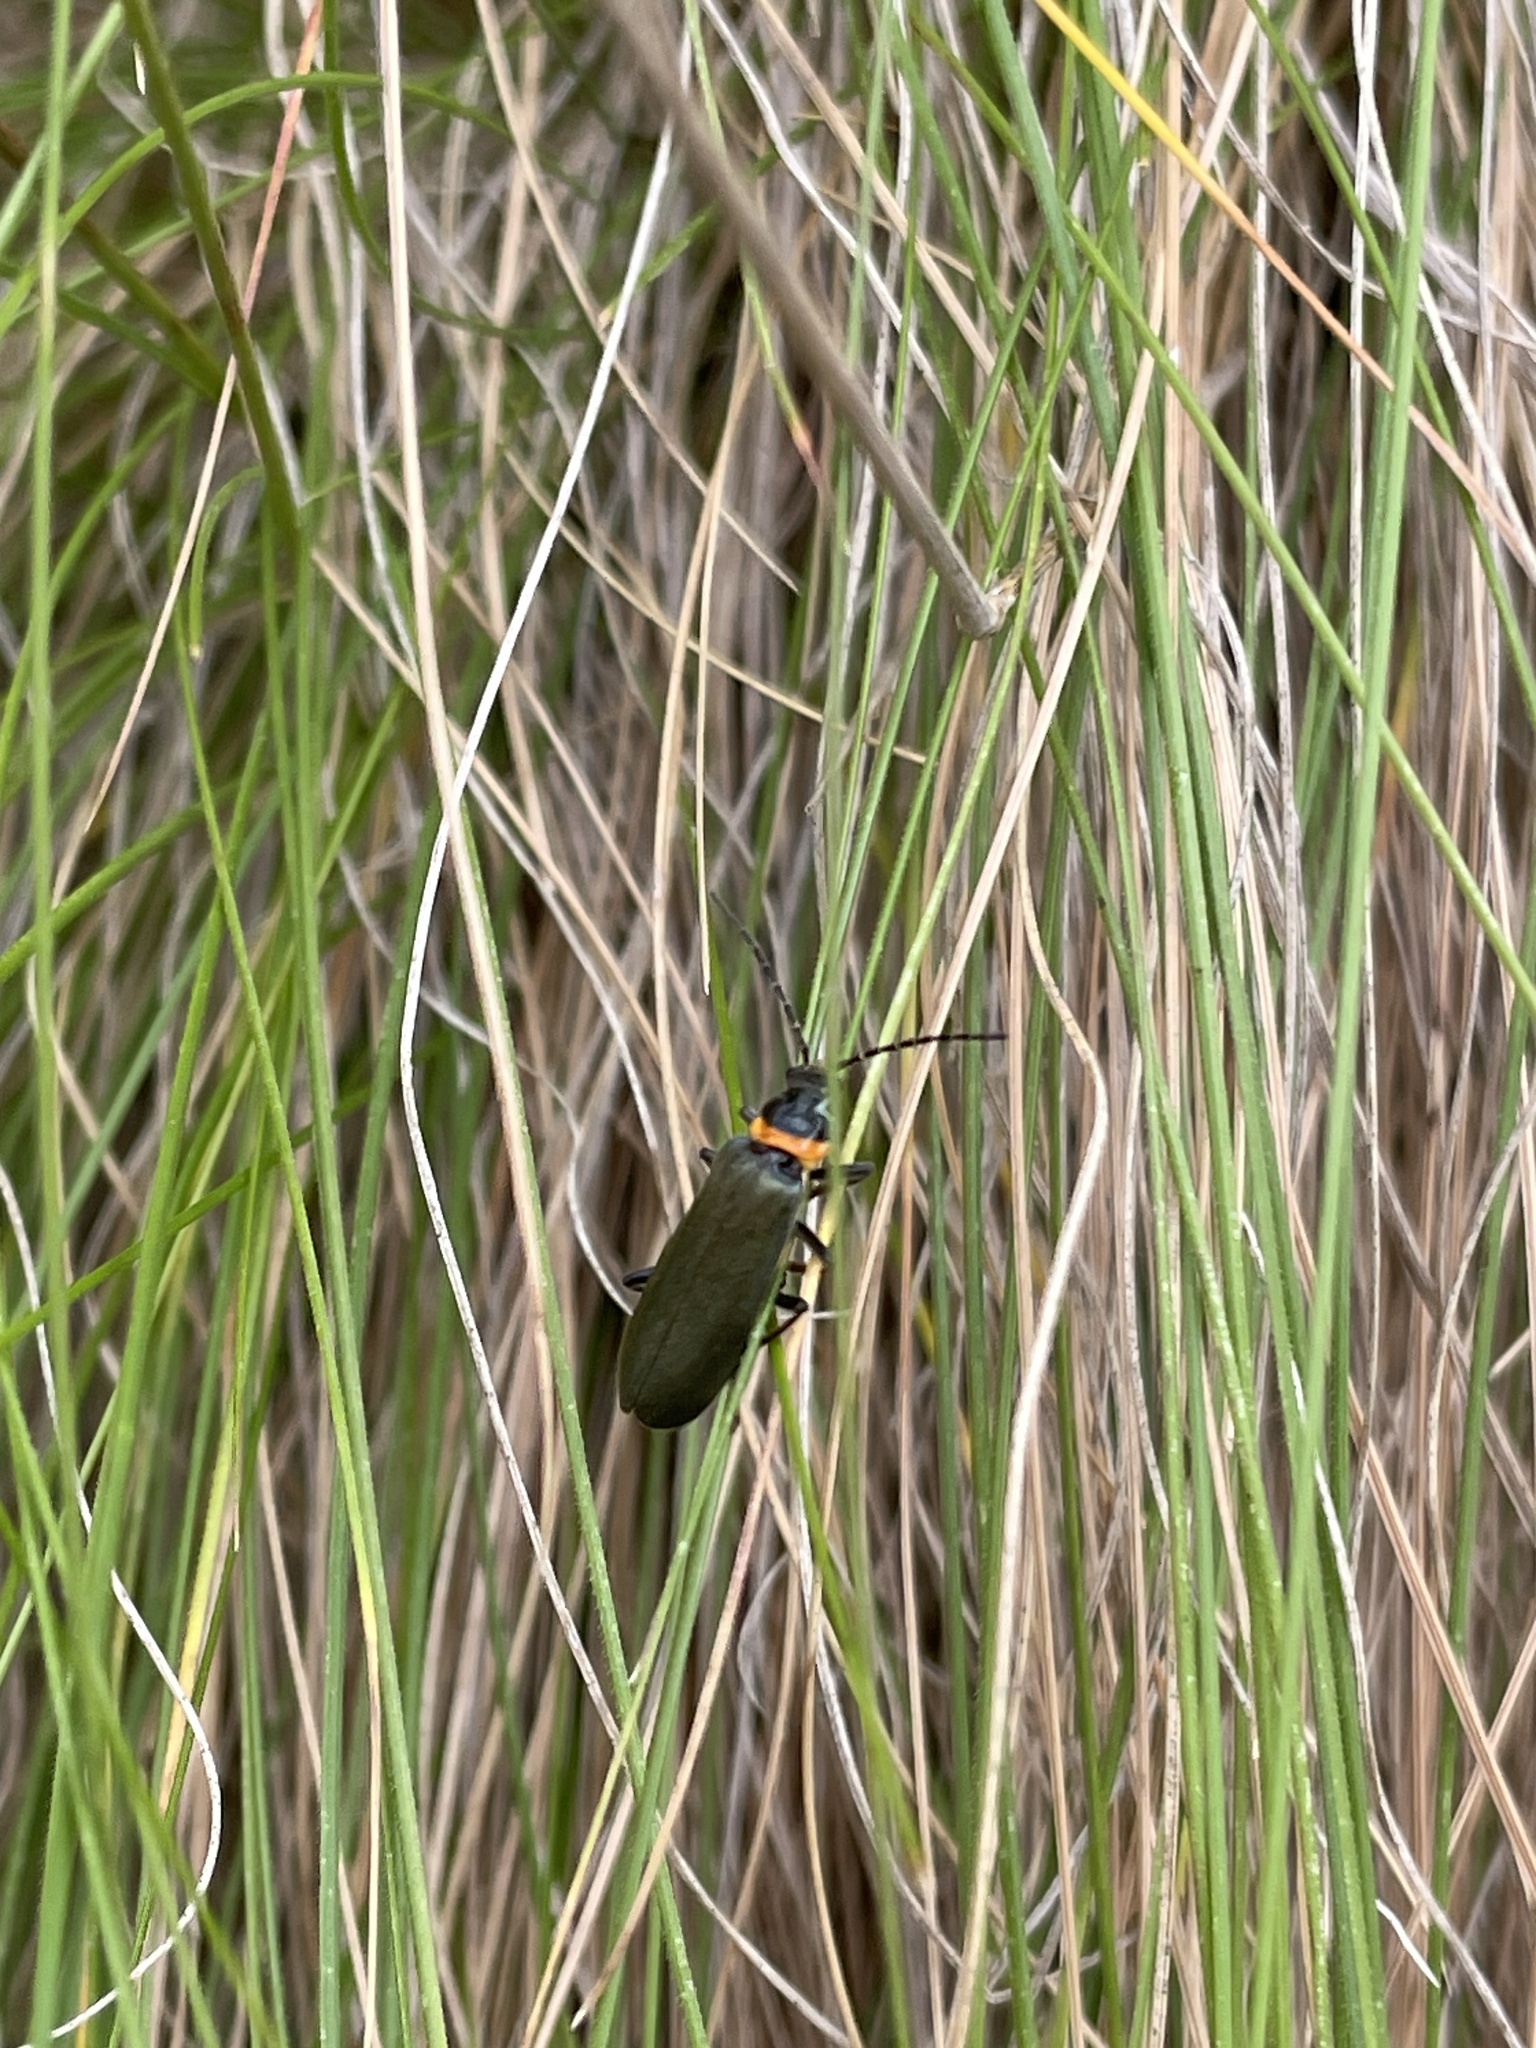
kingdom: Animalia
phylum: Arthropoda
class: Insecta
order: Coleoptera
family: Cantharidae
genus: Chauliognathus
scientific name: Chauliognathus
